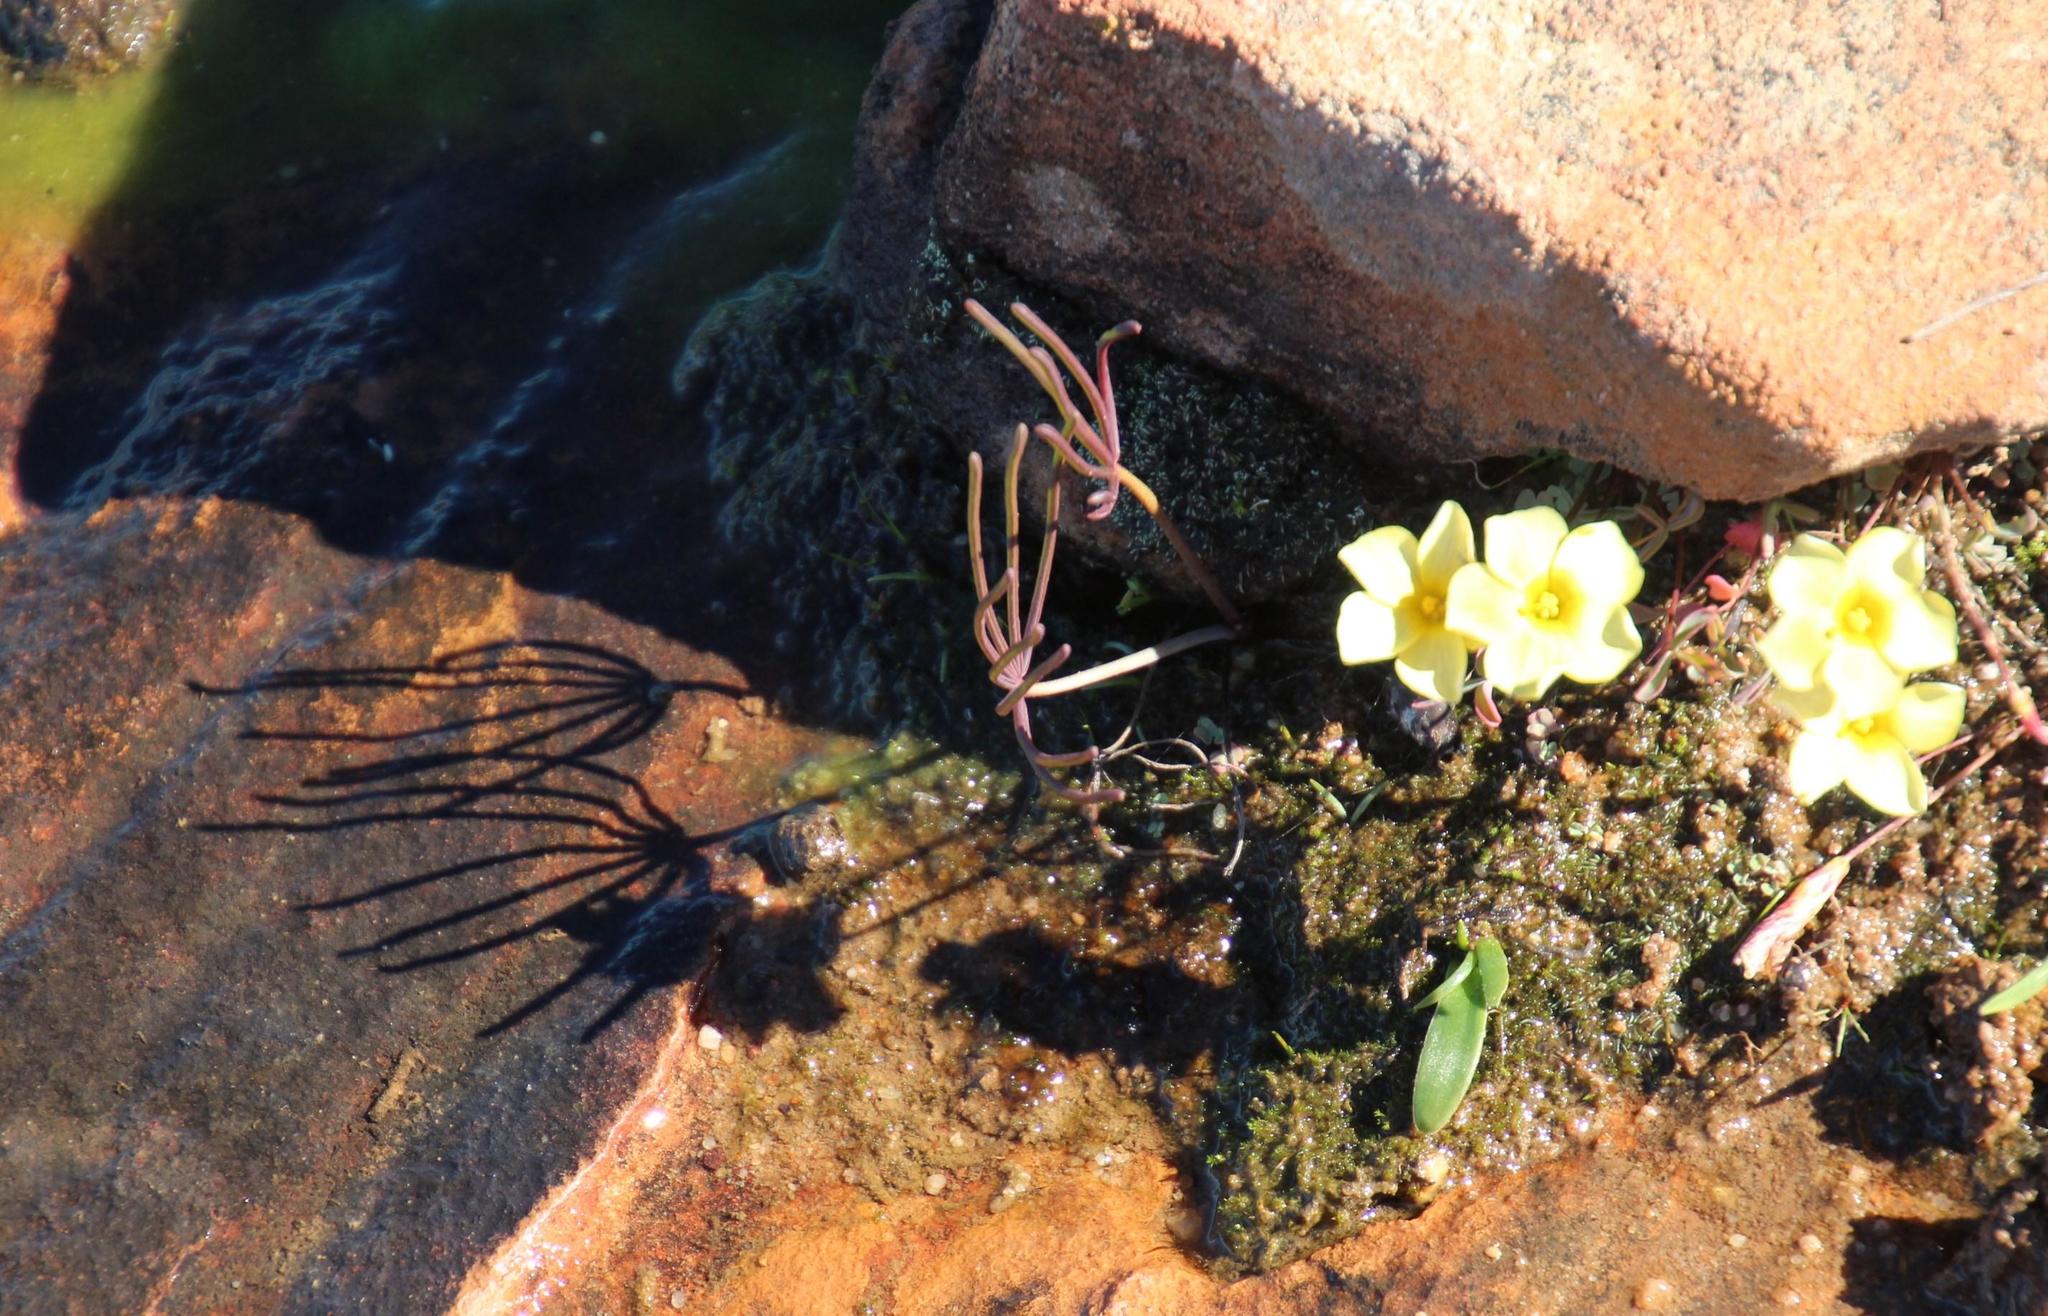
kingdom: Plantae
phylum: Tracheophyta
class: Magnoliopsida
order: Oxalidales
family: Oxalidaceae
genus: Oxalis
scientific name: Oxalis flava
